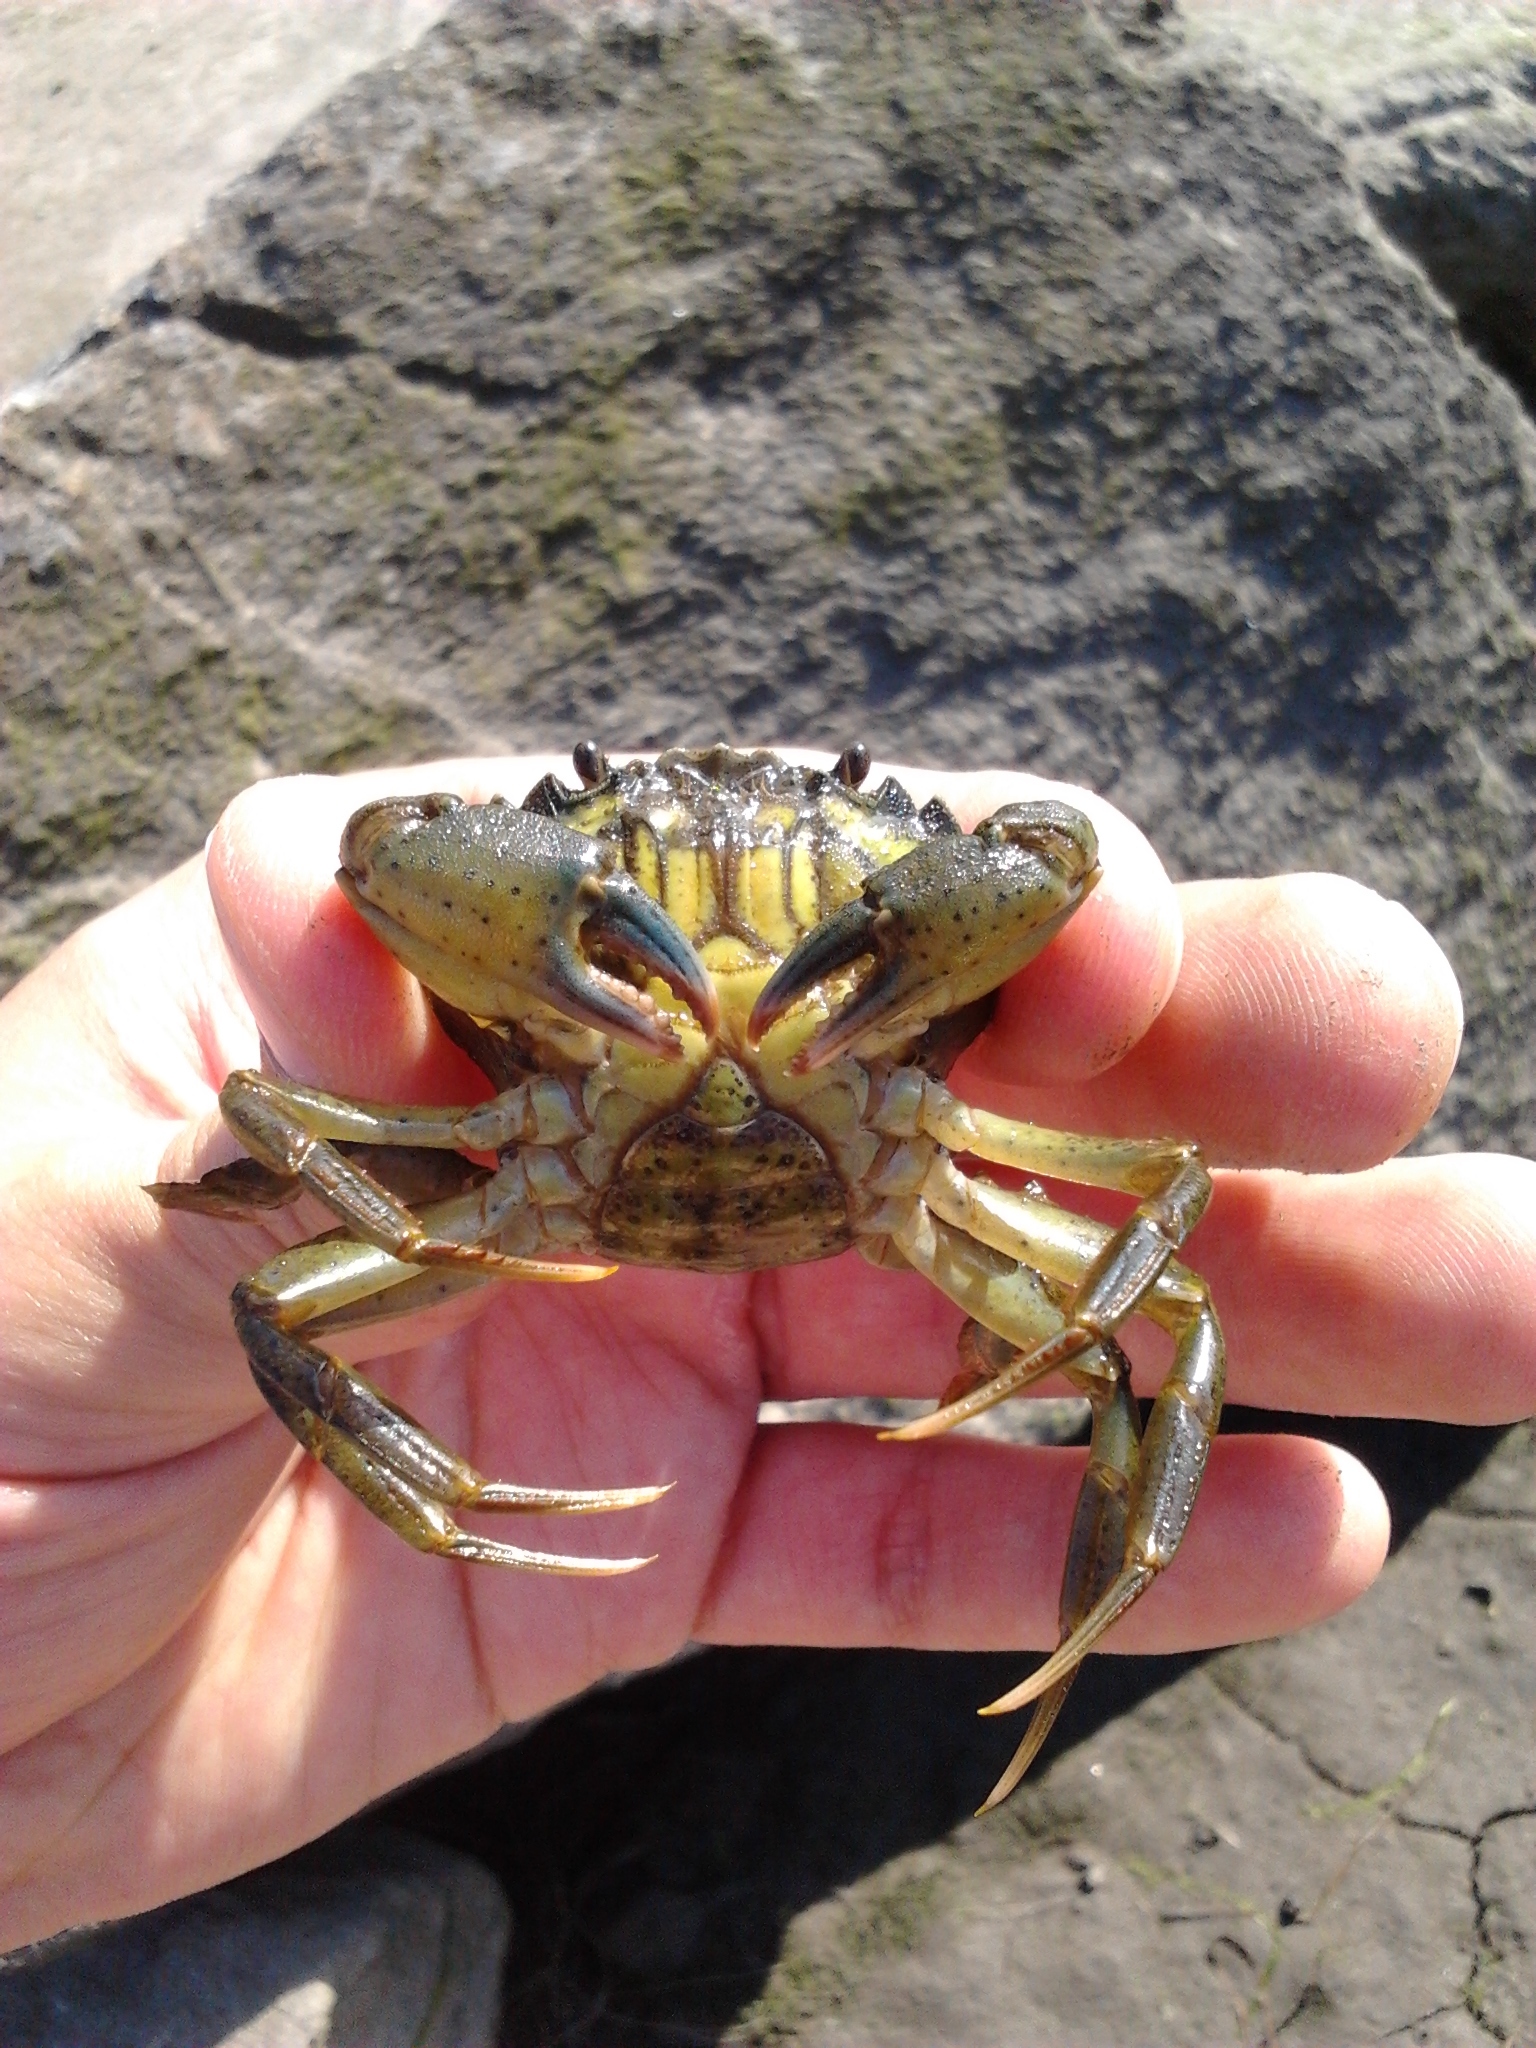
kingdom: Animalia
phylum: Arthropoda
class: Malacostraca
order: Decapoda
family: Carcinidae
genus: Carcinus
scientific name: Carcinus maenas
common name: European green crab
